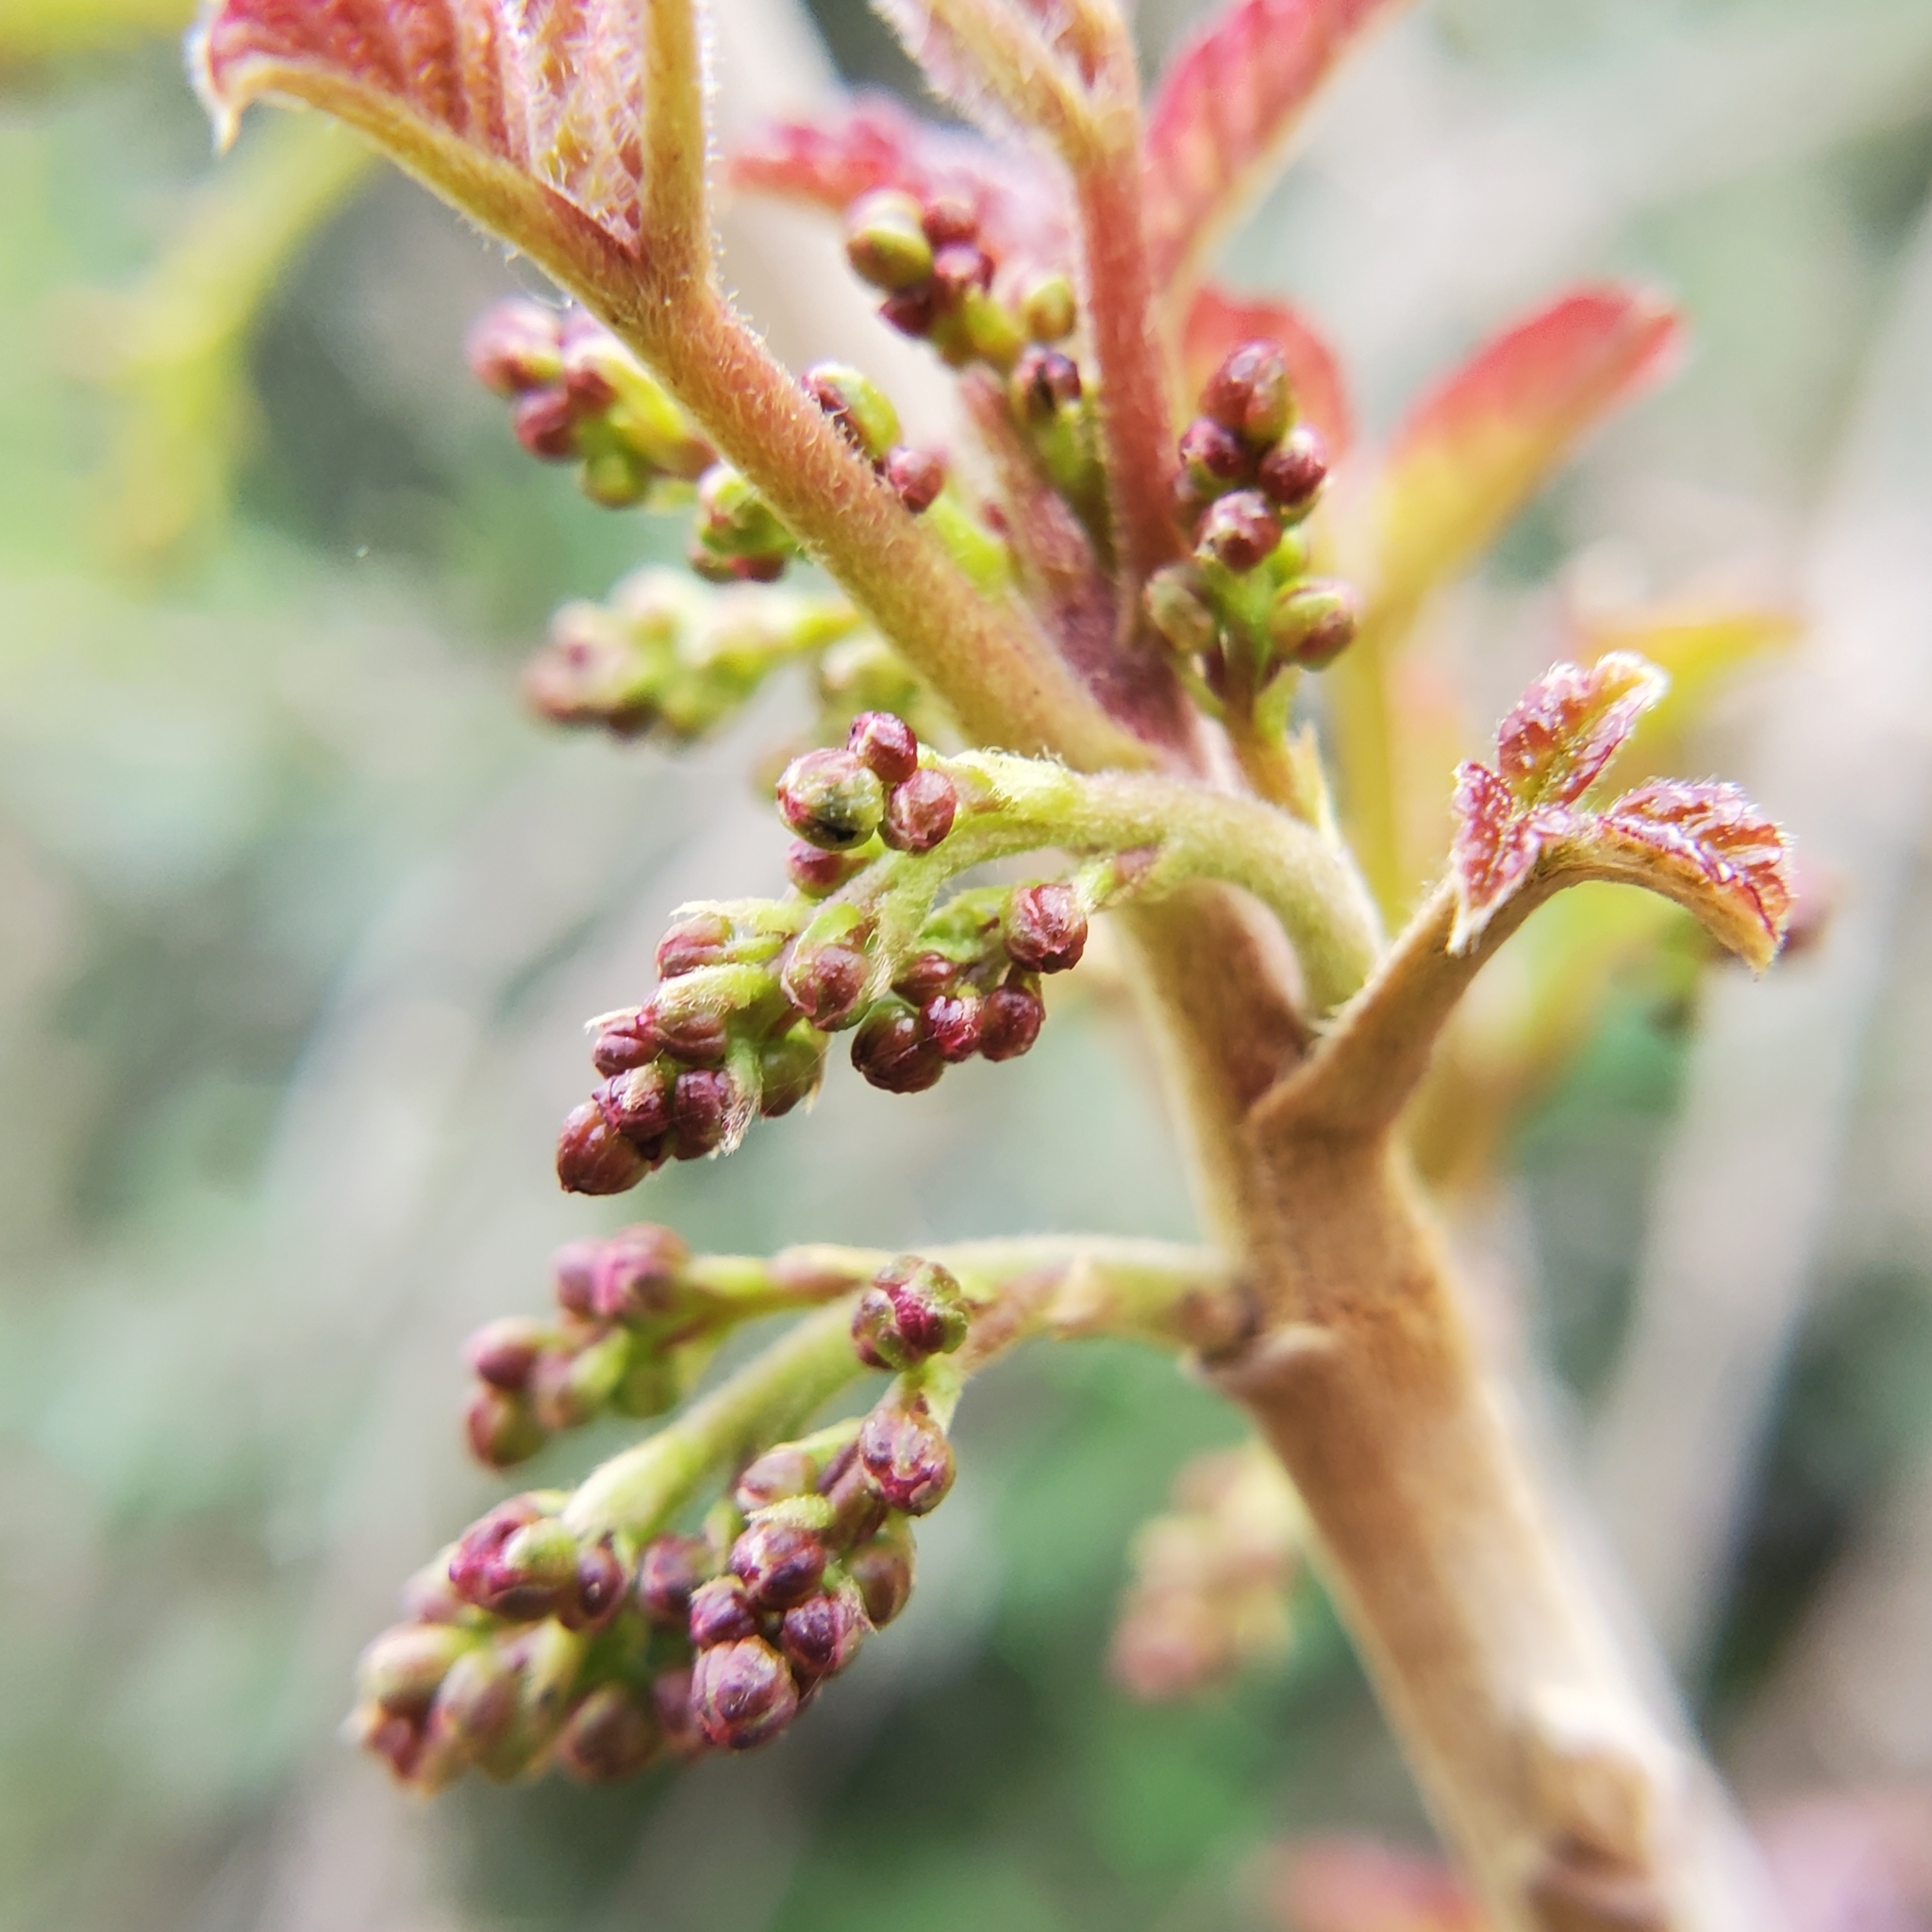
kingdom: Plantae
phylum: Tracheophyta
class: Magnoliopsida
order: Sapindales
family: Anacardiaceae
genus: Toxicodendron
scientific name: Toxicodendron diversilobum
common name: Pacific poison-oak
